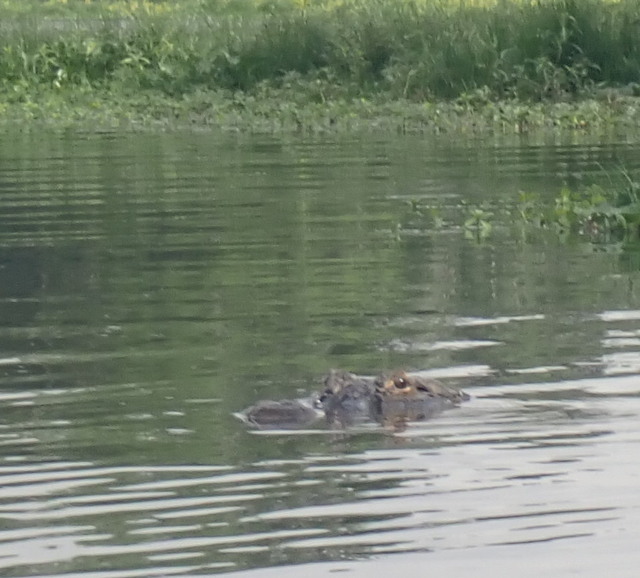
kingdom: Animalia
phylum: Chordata
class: Crocodylia
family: Alligatoridae
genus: Alligator
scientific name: Alligator mississippiensis
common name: American alligator
